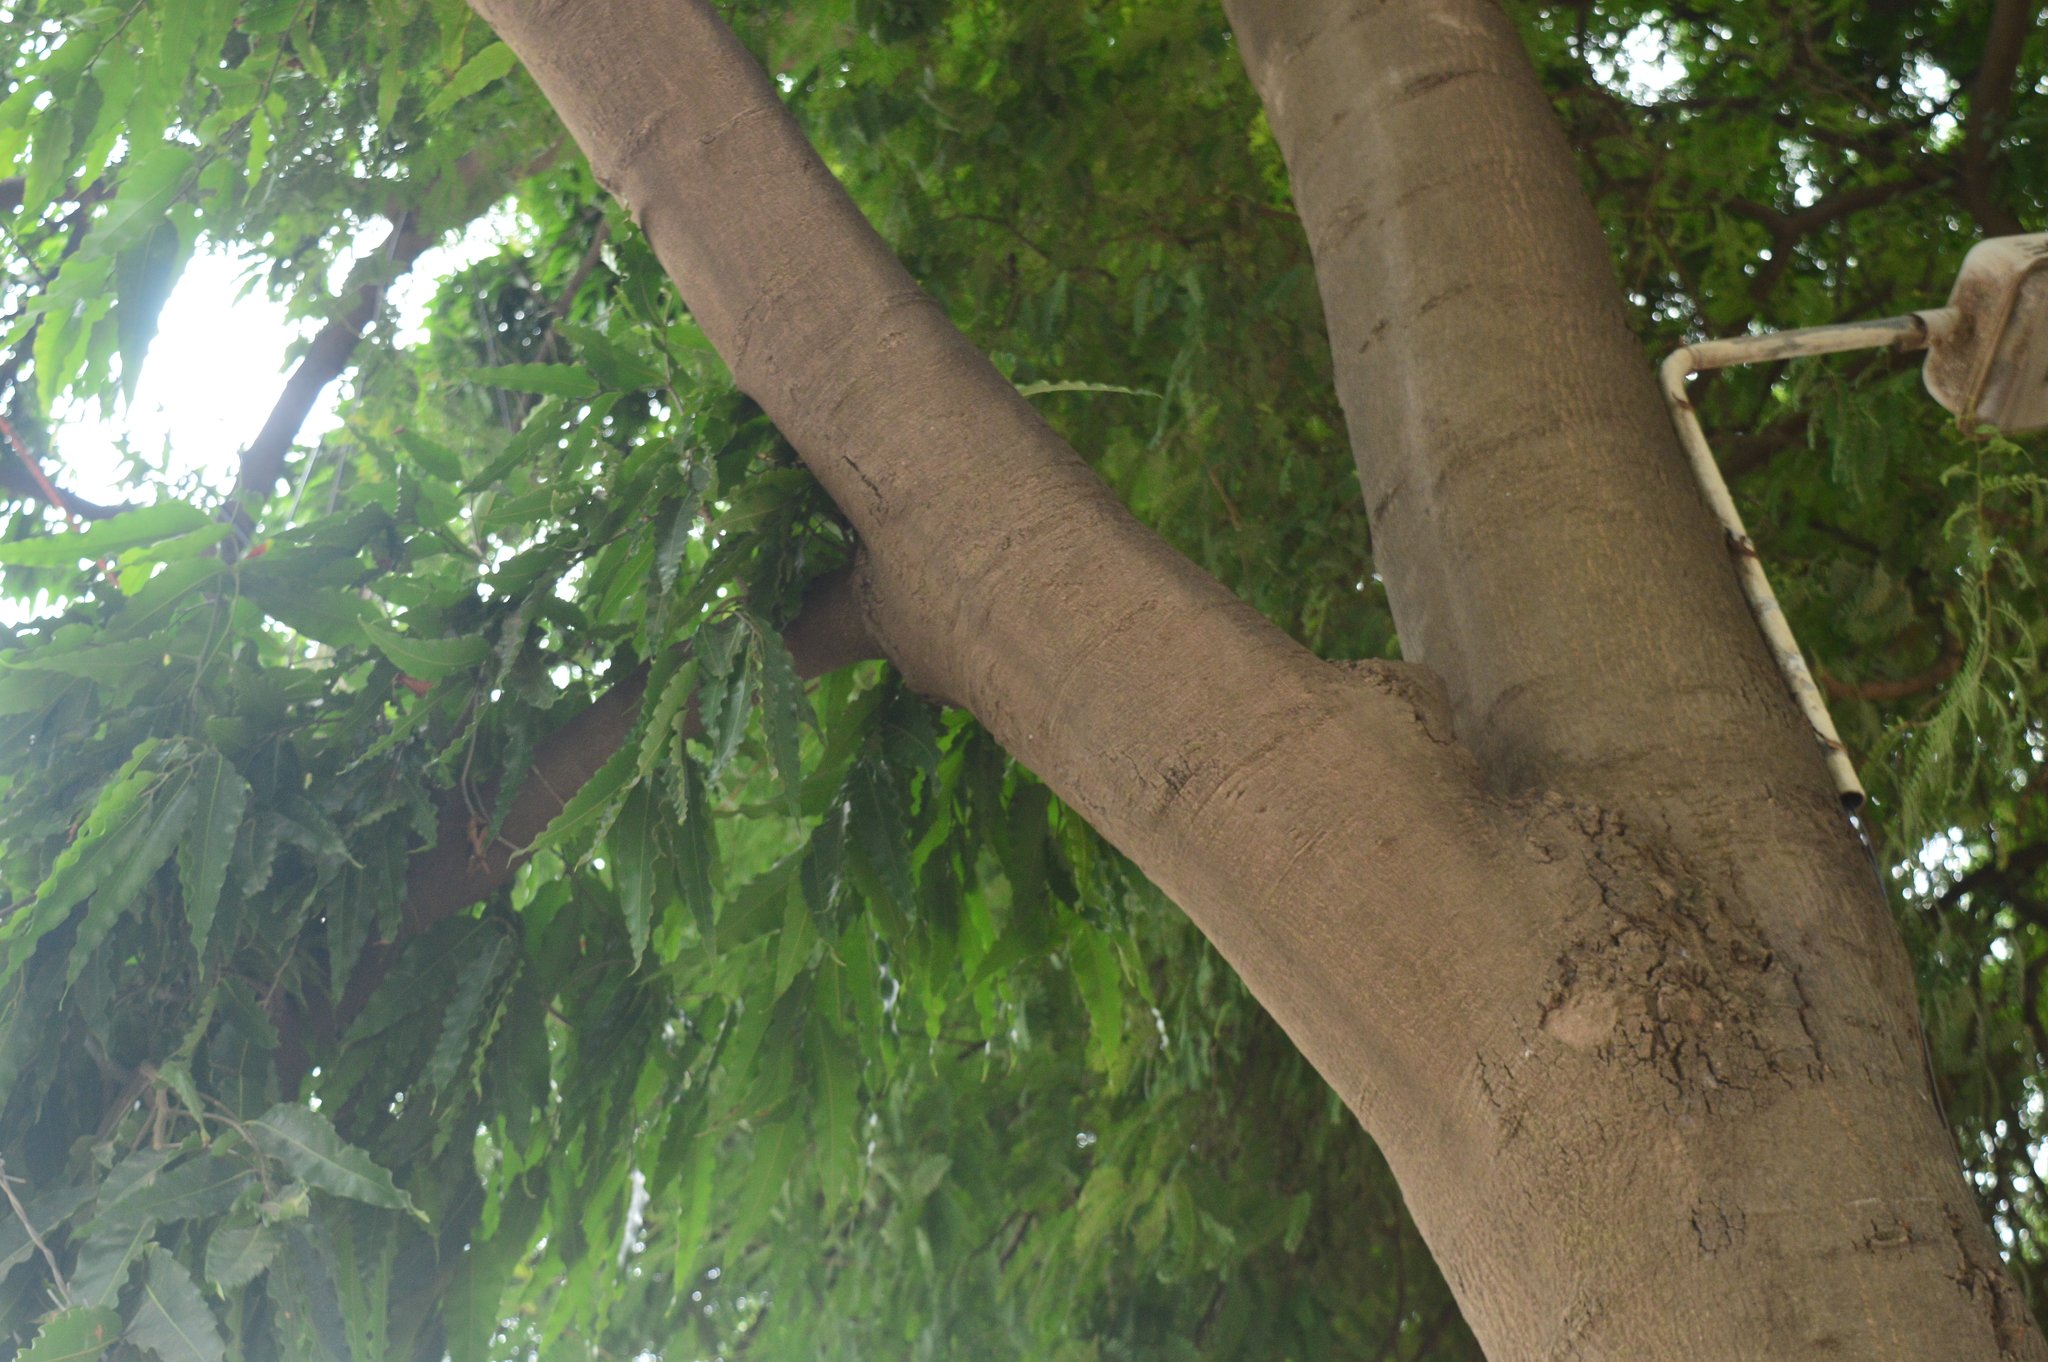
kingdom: Plantae
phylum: Tracheophyta
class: Magnoliopsida
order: Magnoliales
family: Annonaceae
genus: Polyalthia
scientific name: Polyalthia longifolia
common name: Cemetery-tree
